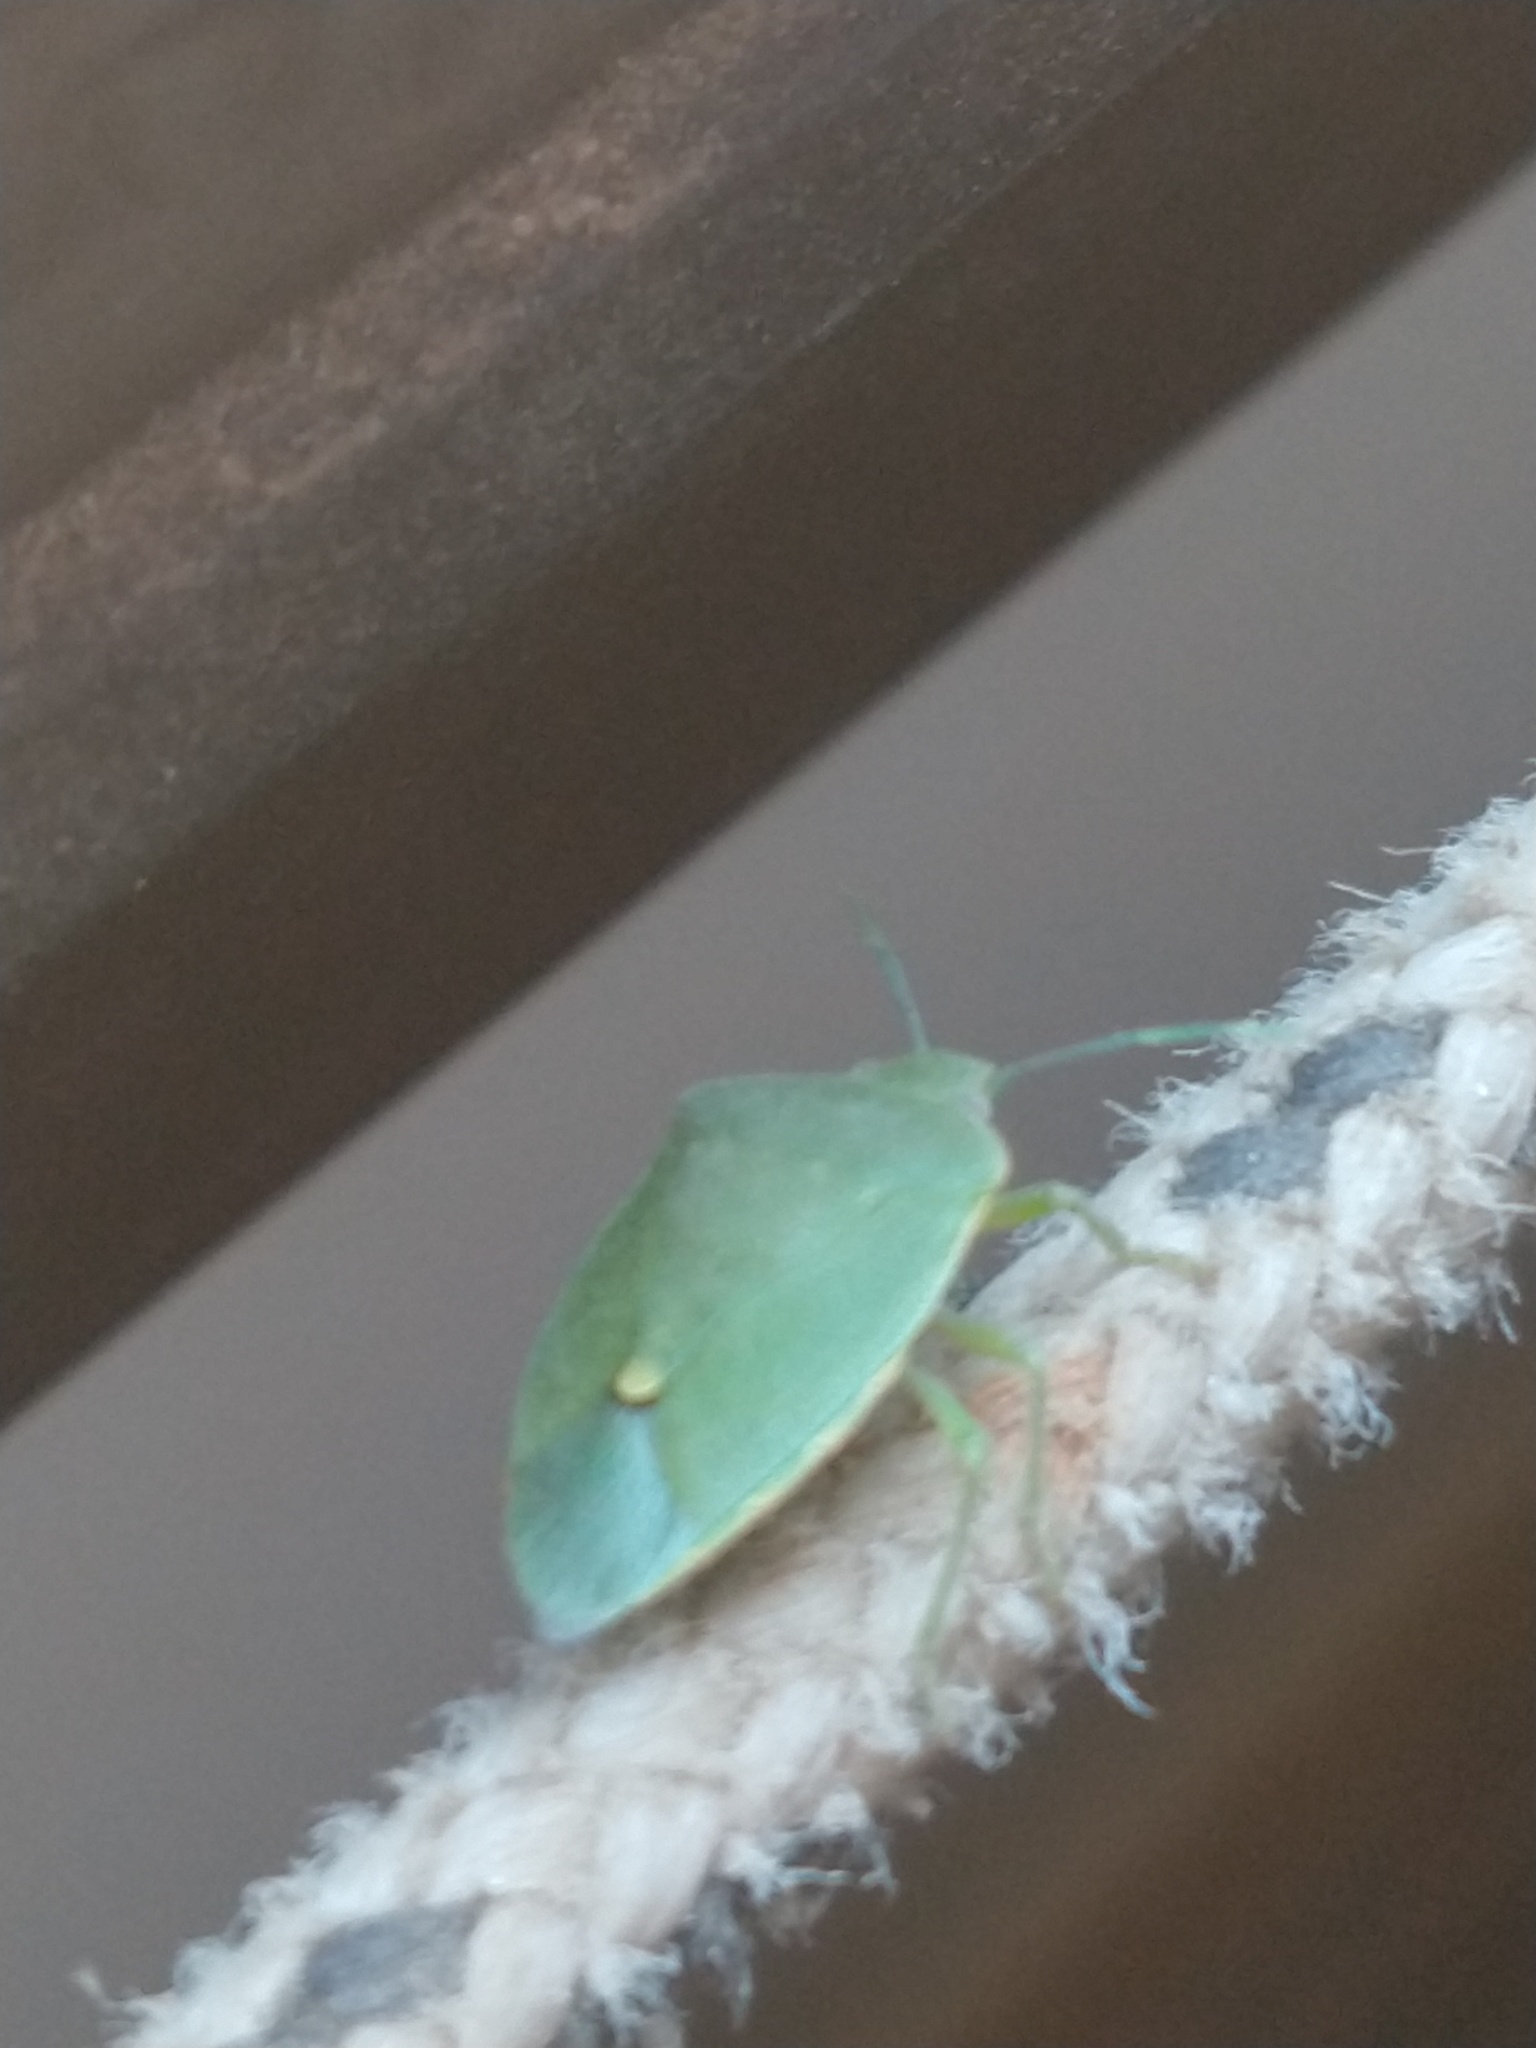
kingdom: Animalia
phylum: Arthropoda
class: Insecta
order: Hemiptera
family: Pentatomidae
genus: Chinavia
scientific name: Chinavia
